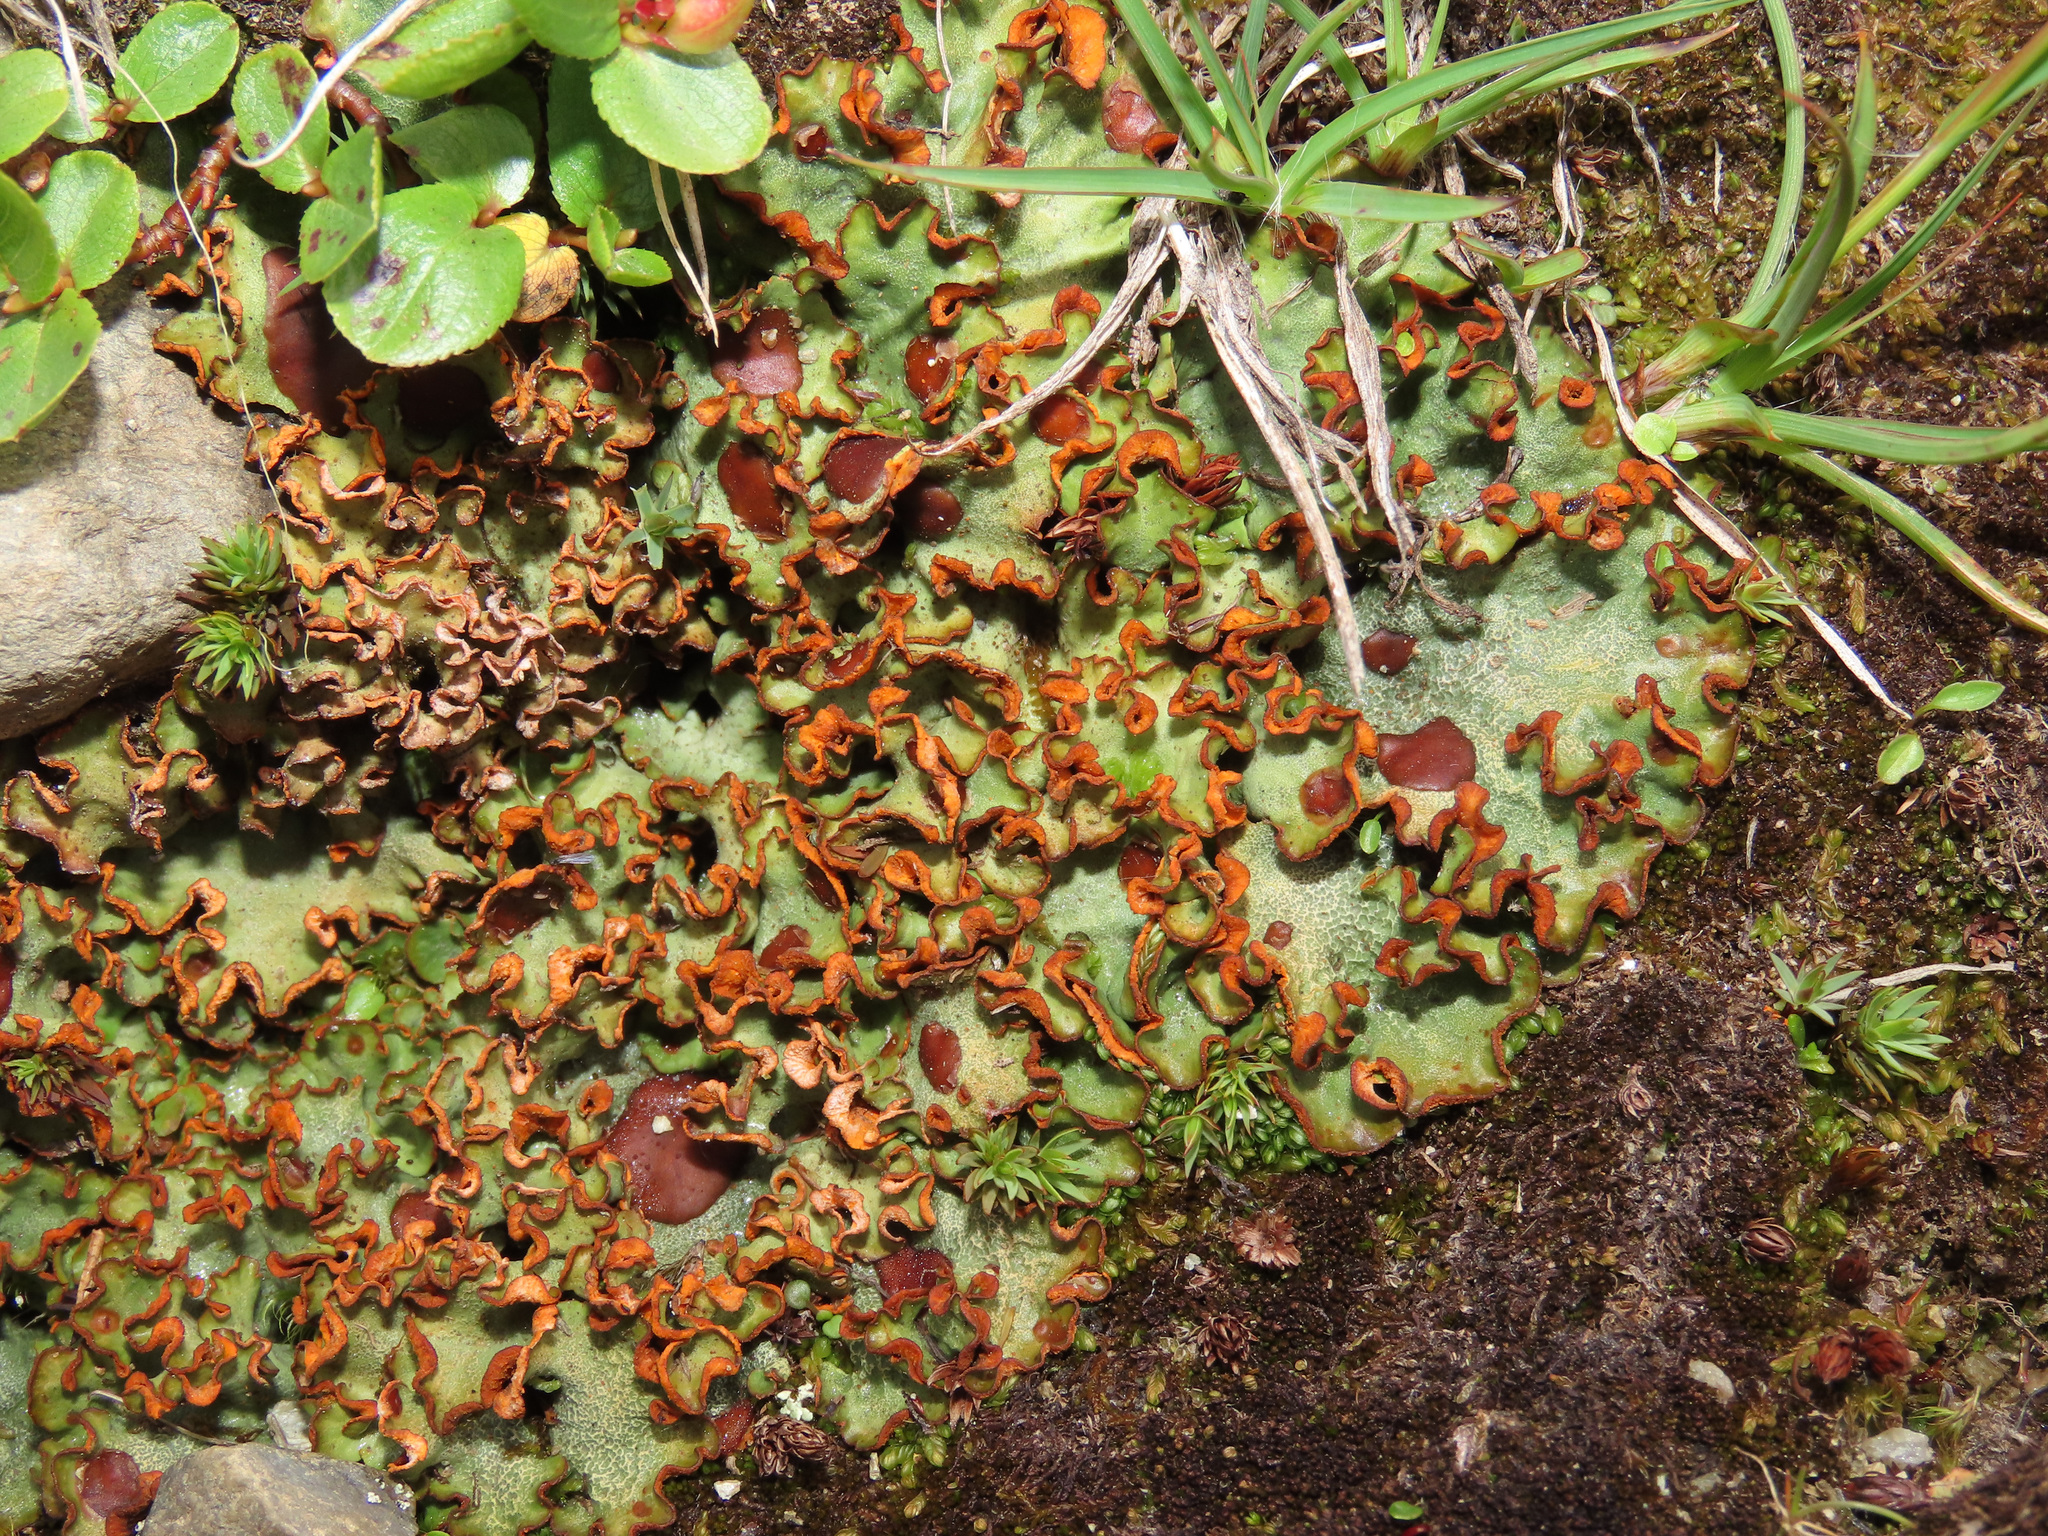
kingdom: Fungi
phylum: Ascomycota
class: Lecanoromycetes
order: Peltigerales
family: Peltigeraceae
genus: Solorina
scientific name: Solorina crocea
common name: Mountain saffron
